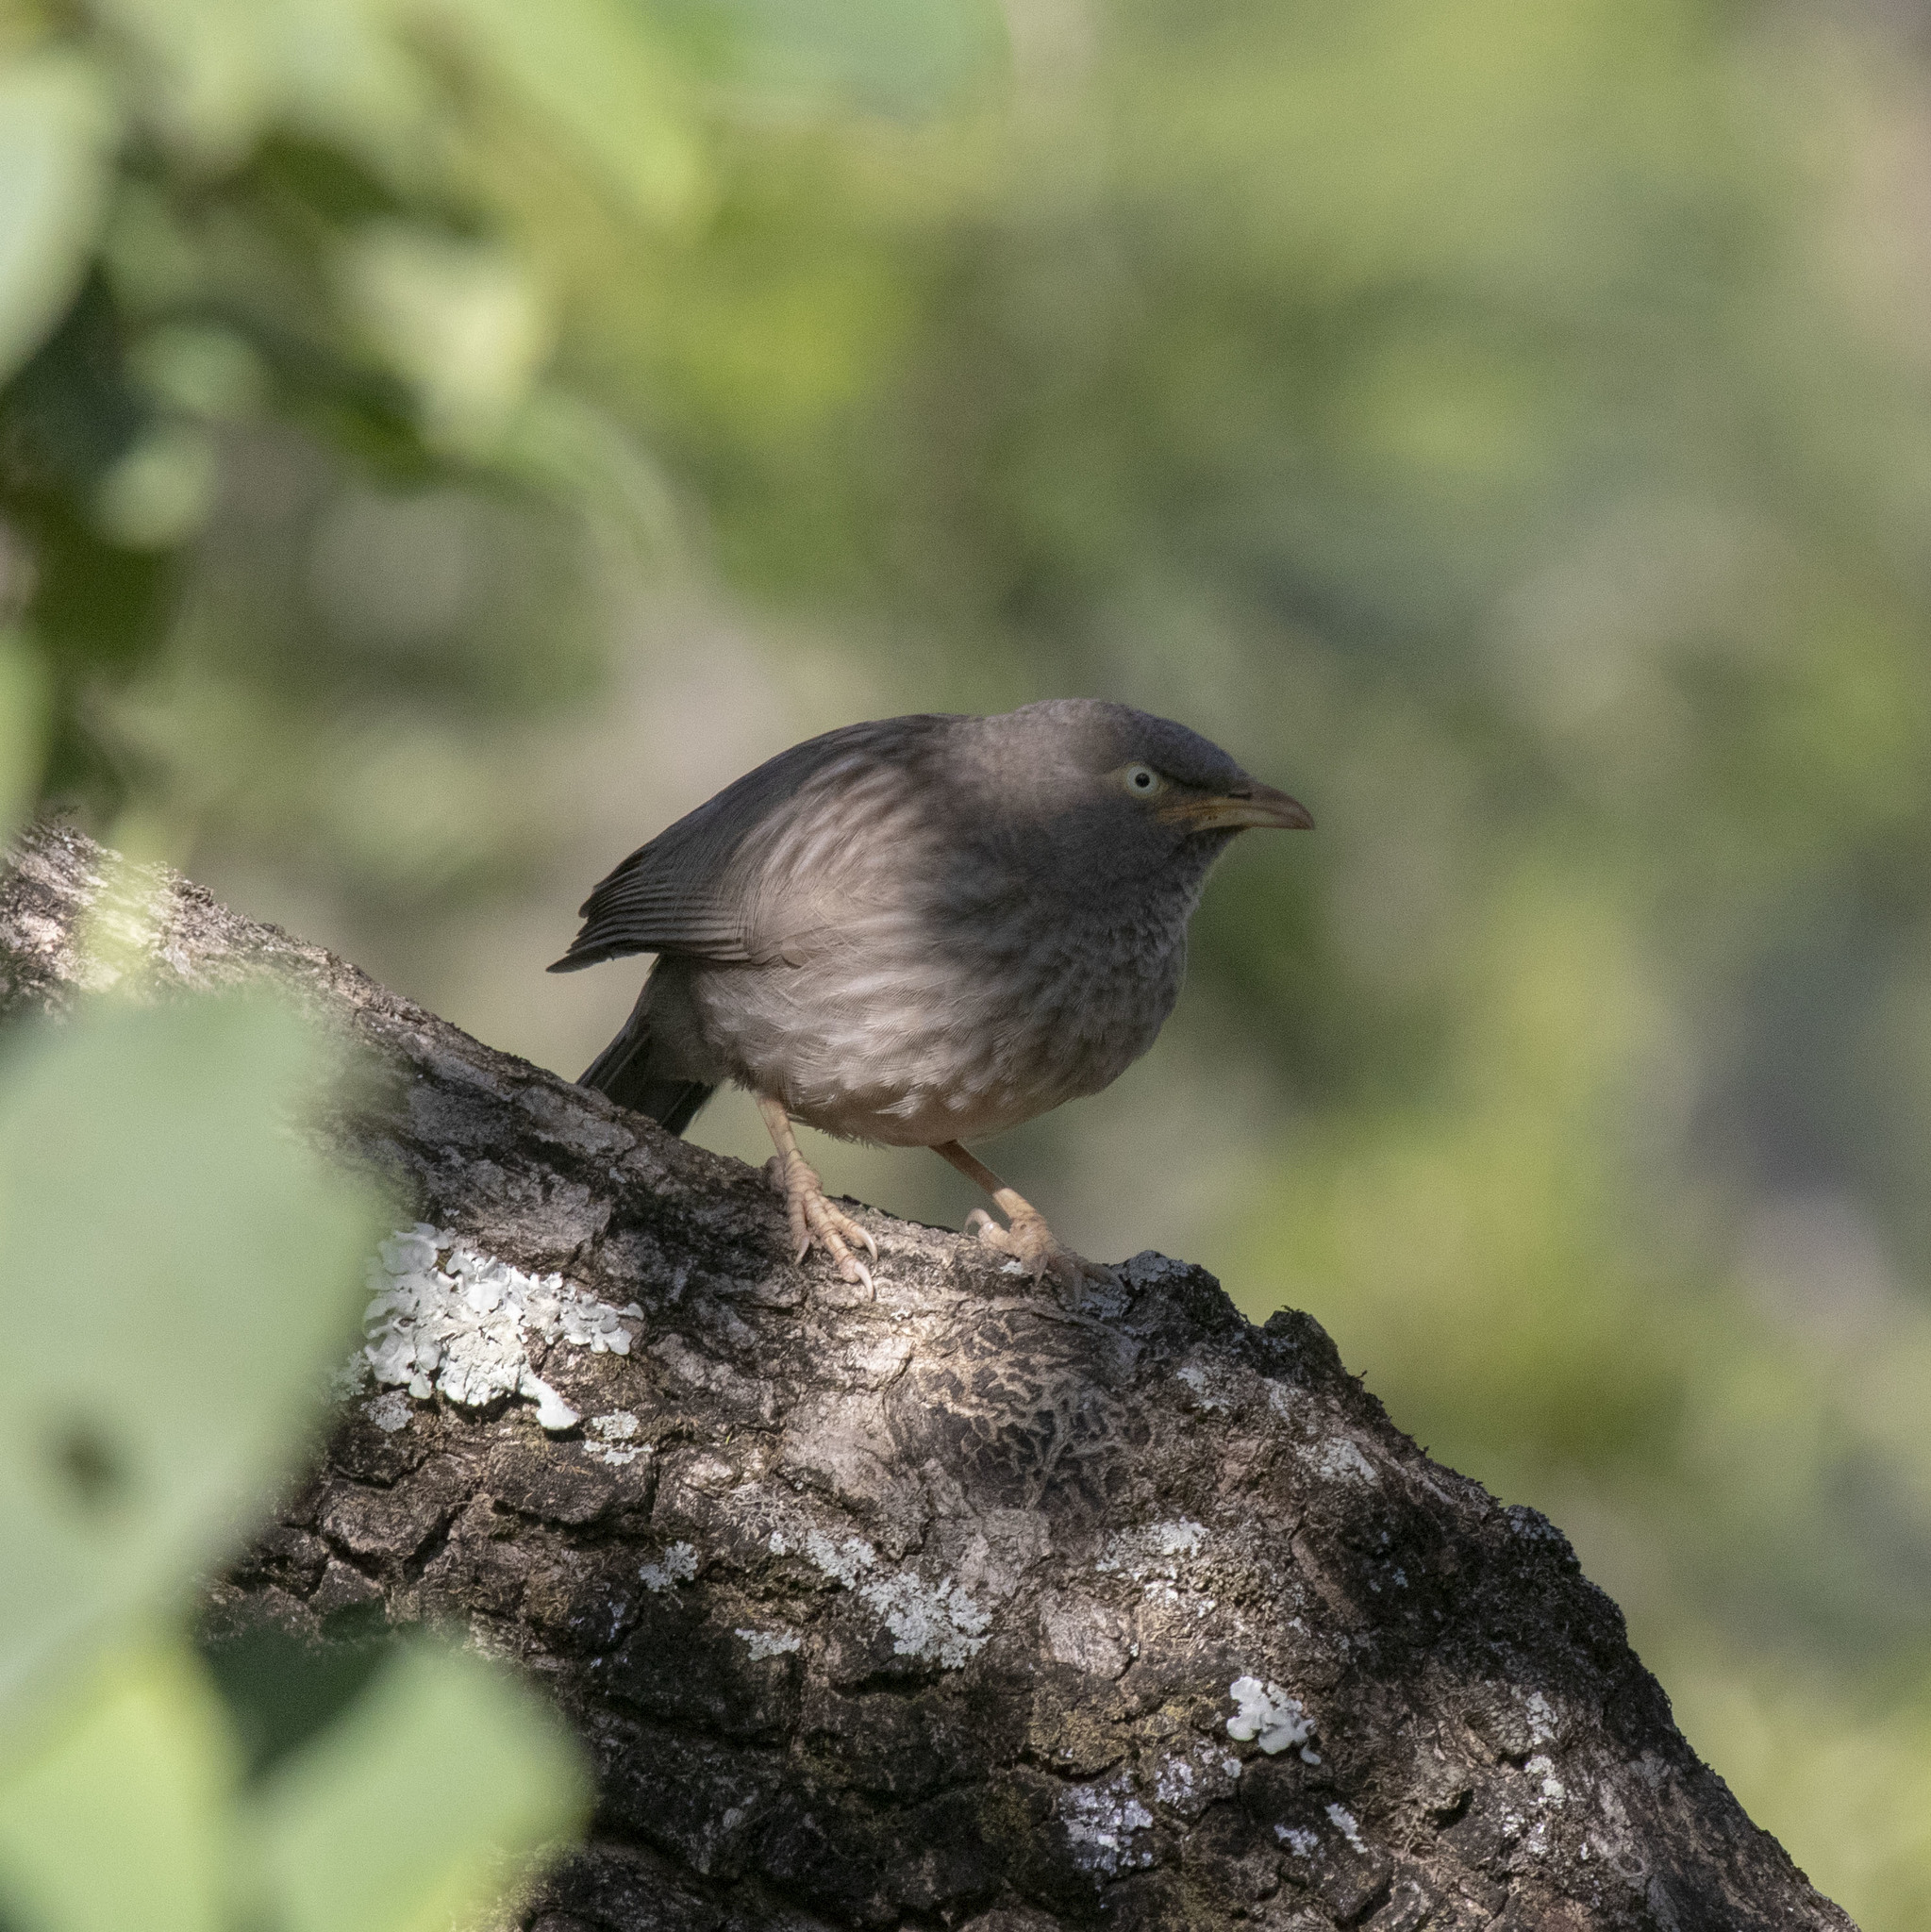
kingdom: Animalia
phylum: Chordata
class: Aves
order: Passeriformes
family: Leiothrichidae
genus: Turdoides
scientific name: Turdoides striata
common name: Jungle babbler
